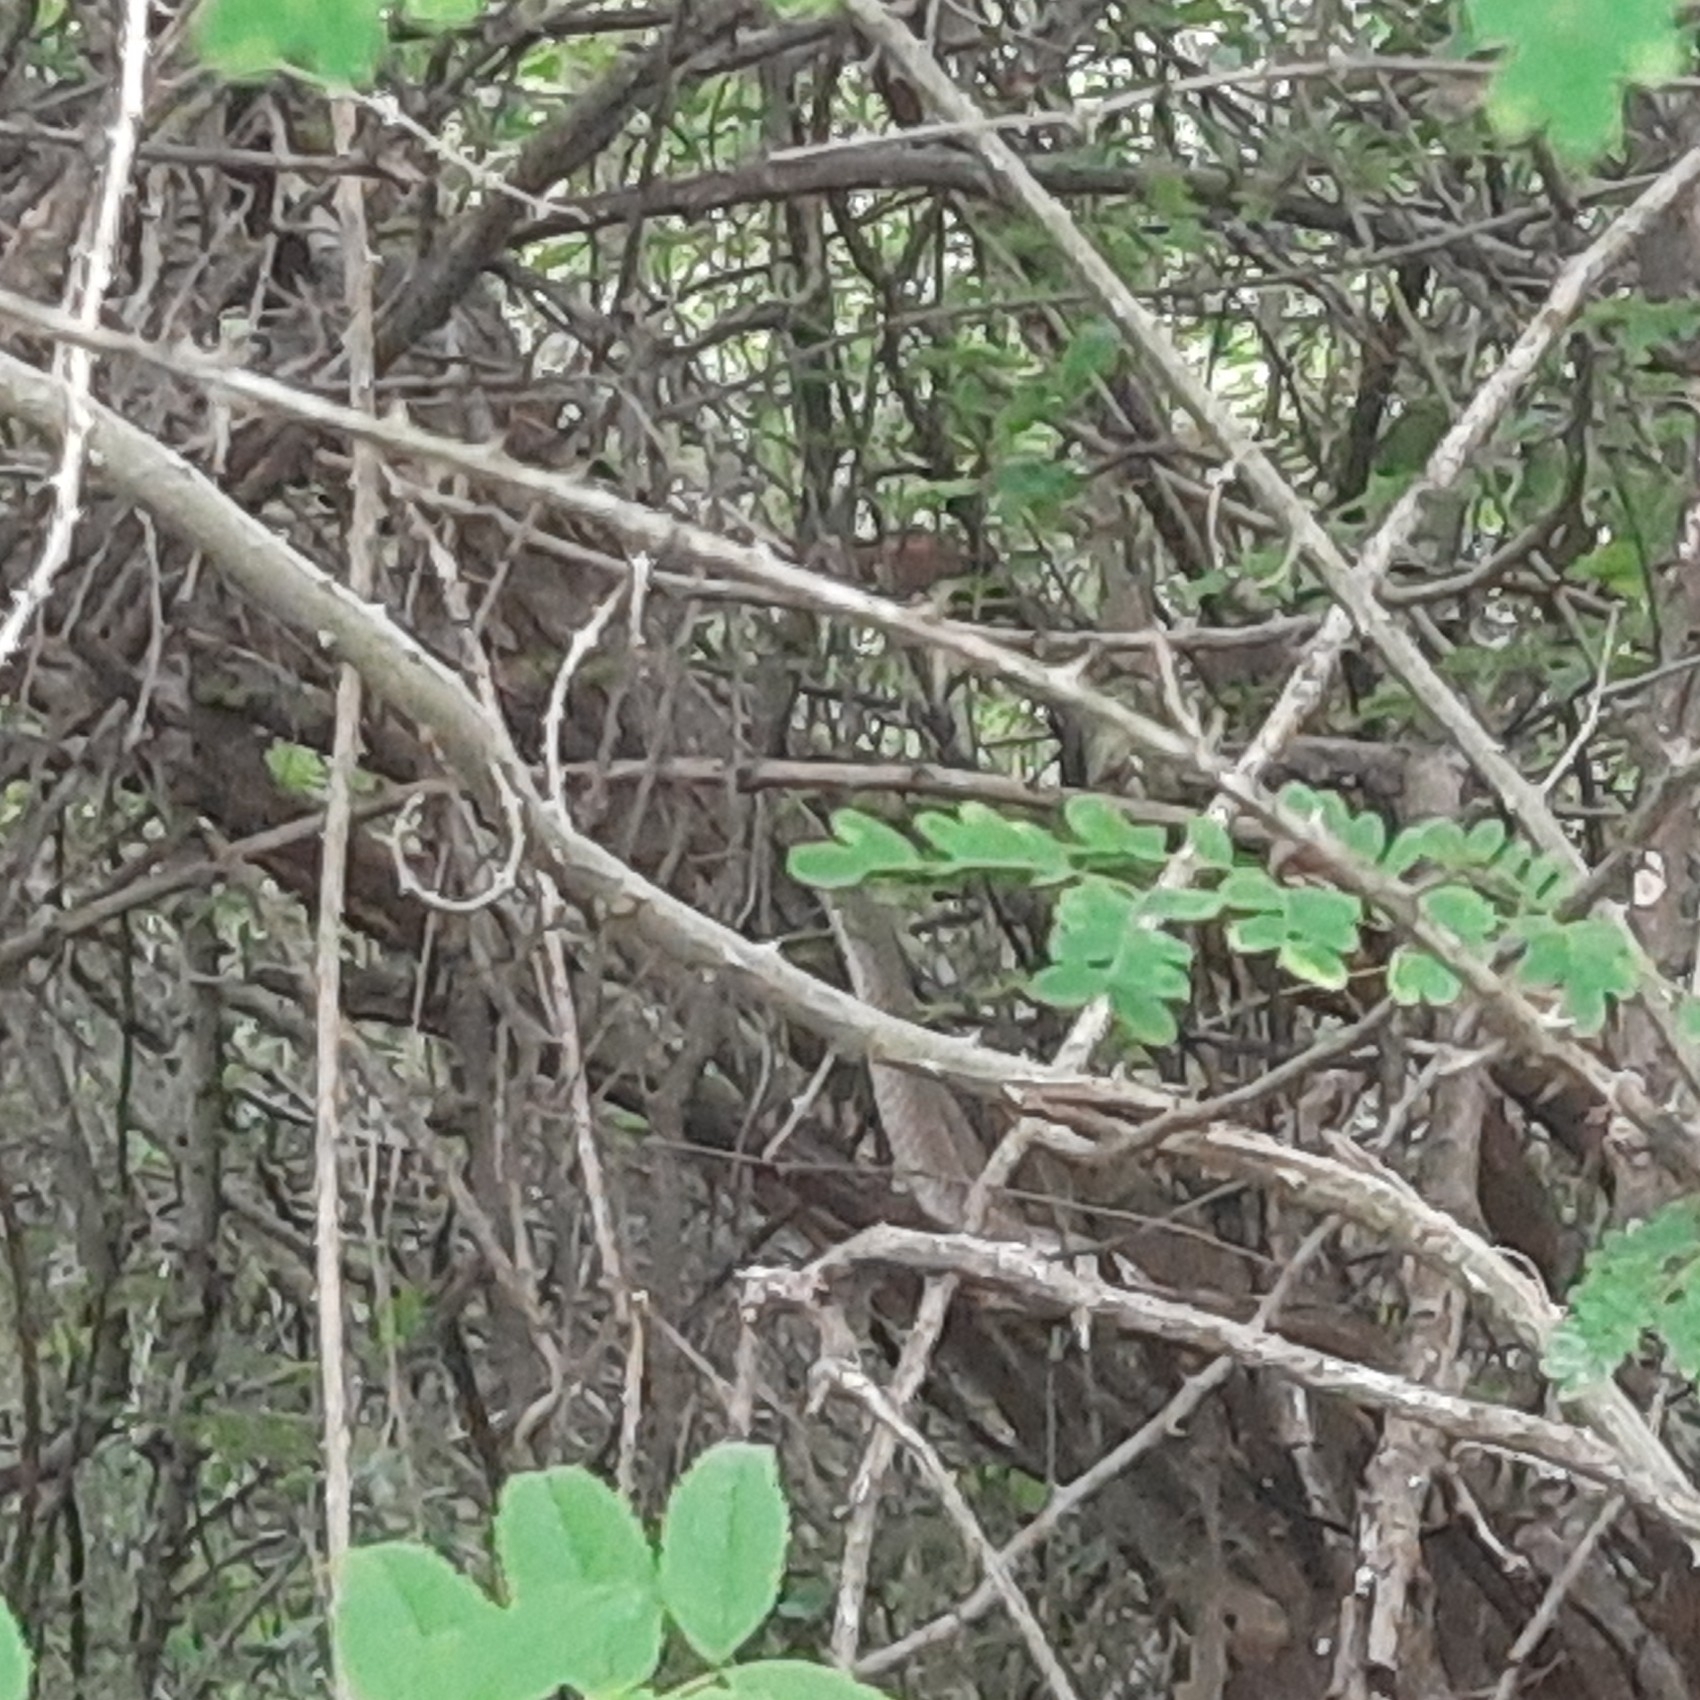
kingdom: Animalia
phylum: Chordata
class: Squamata
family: Elapidae
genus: Naja
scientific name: Naja naja
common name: Indian cobra
